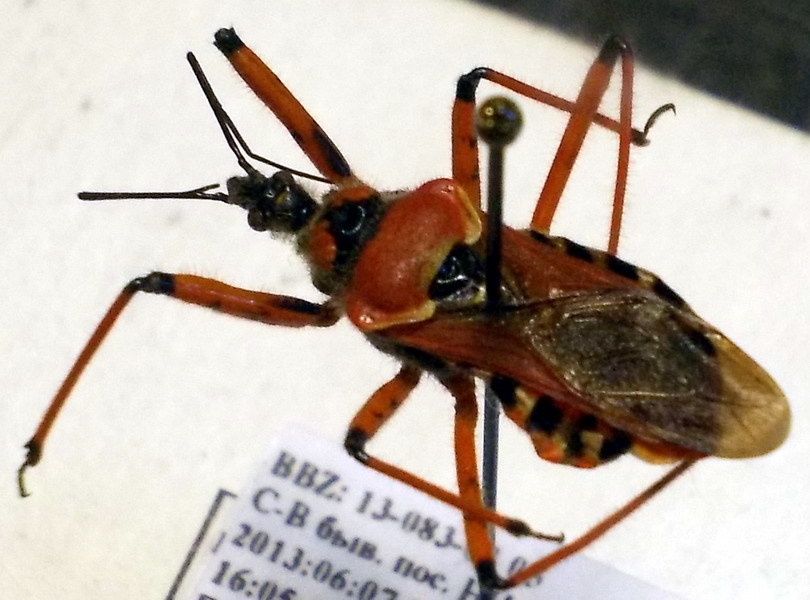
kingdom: Animalia
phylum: Arthropoda
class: Insecta
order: Hemiptera
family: Reduviidae
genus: Rhynocoris
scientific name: Rhynocoris iracundus
